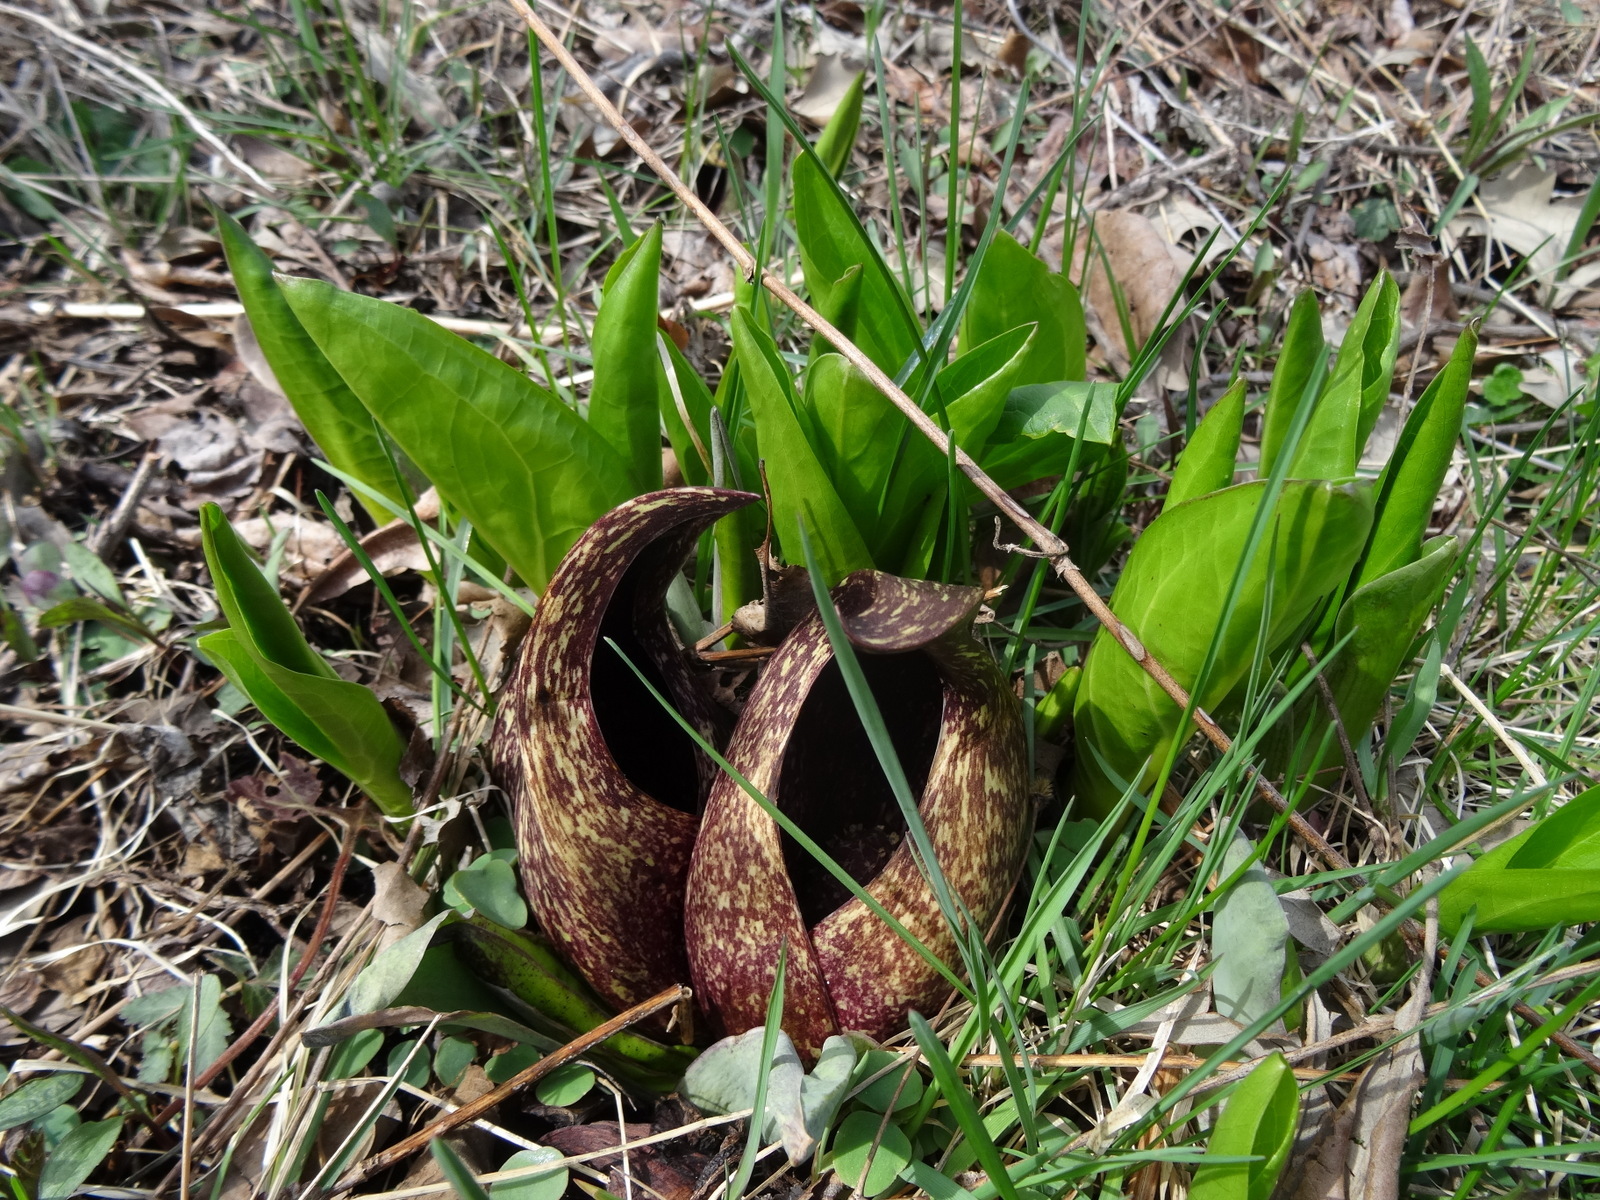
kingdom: Plantae
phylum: Tracheophyta
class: Liliopsida
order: Alismatales
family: Araceae
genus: Symplocarpus
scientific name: Symplocarpus foetidus
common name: Eastern skunk cabbage
